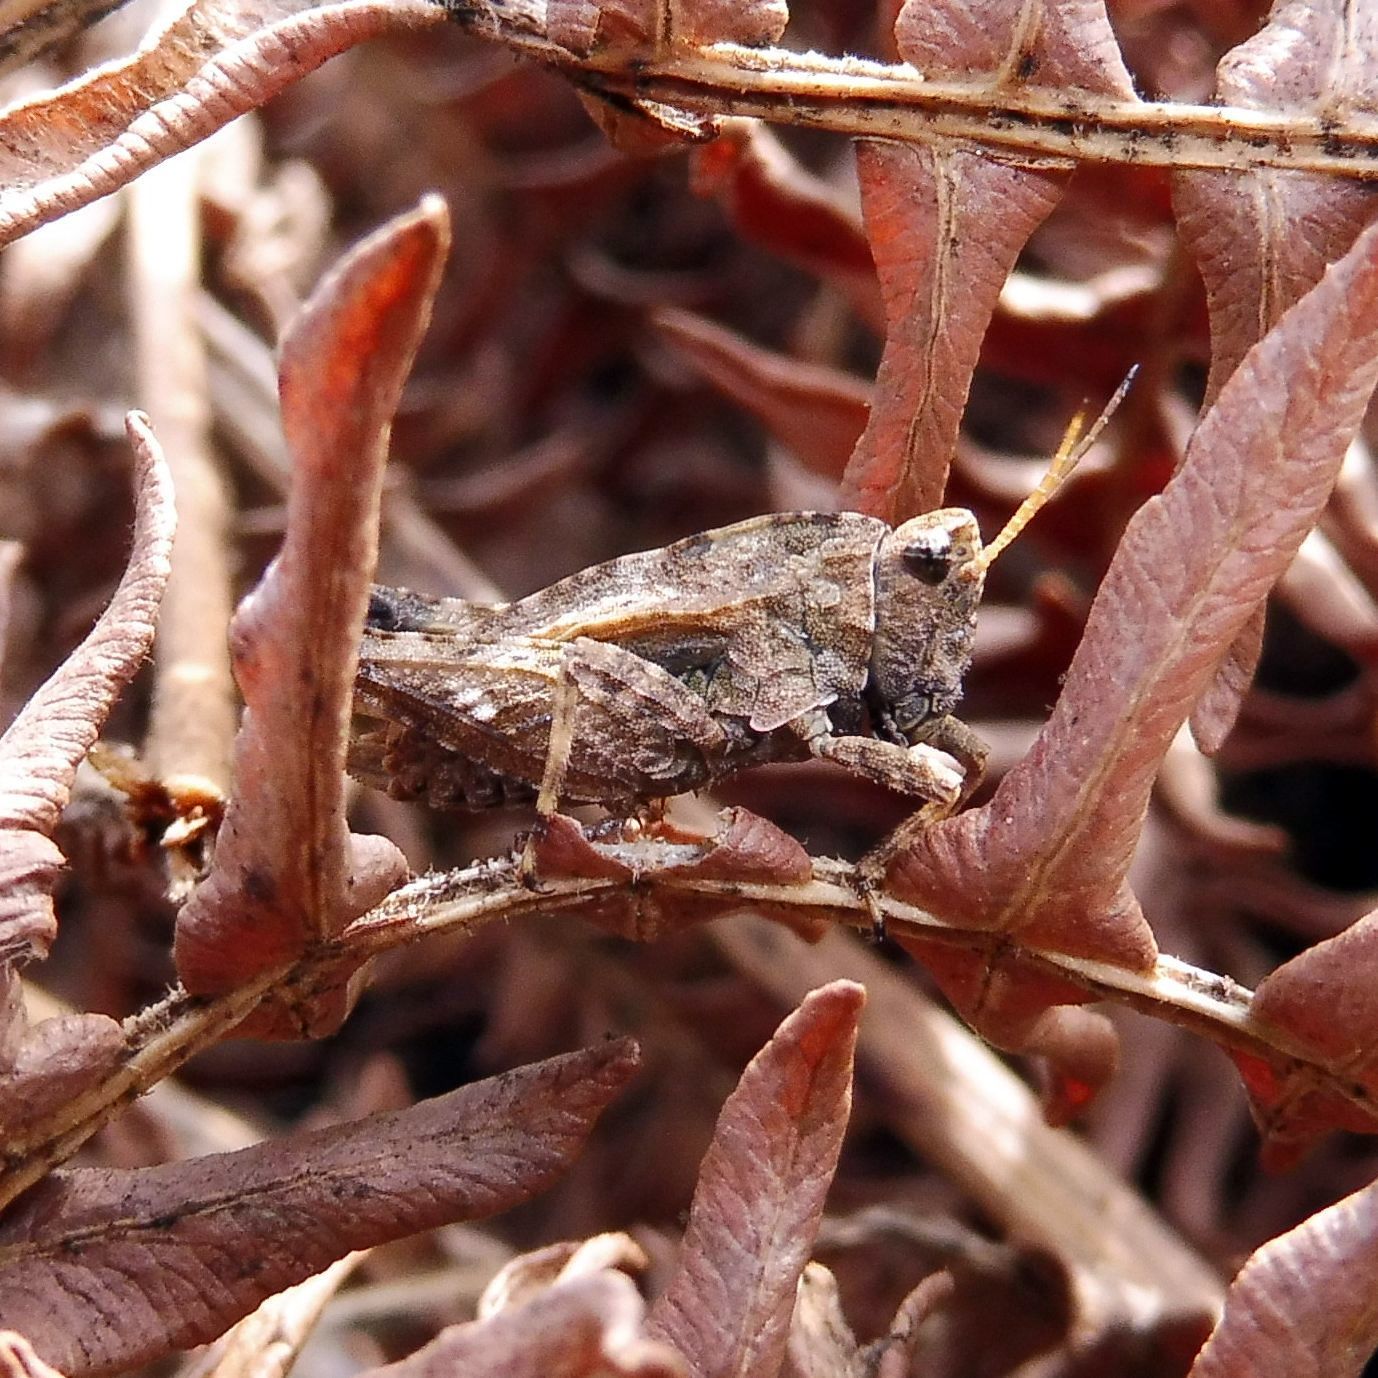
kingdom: Animalia
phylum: Arthropoda
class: Insecta
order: Orthoptera
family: Tetrigidae
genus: Tetrix
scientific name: Tetrix undulata
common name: Common groundhopper
